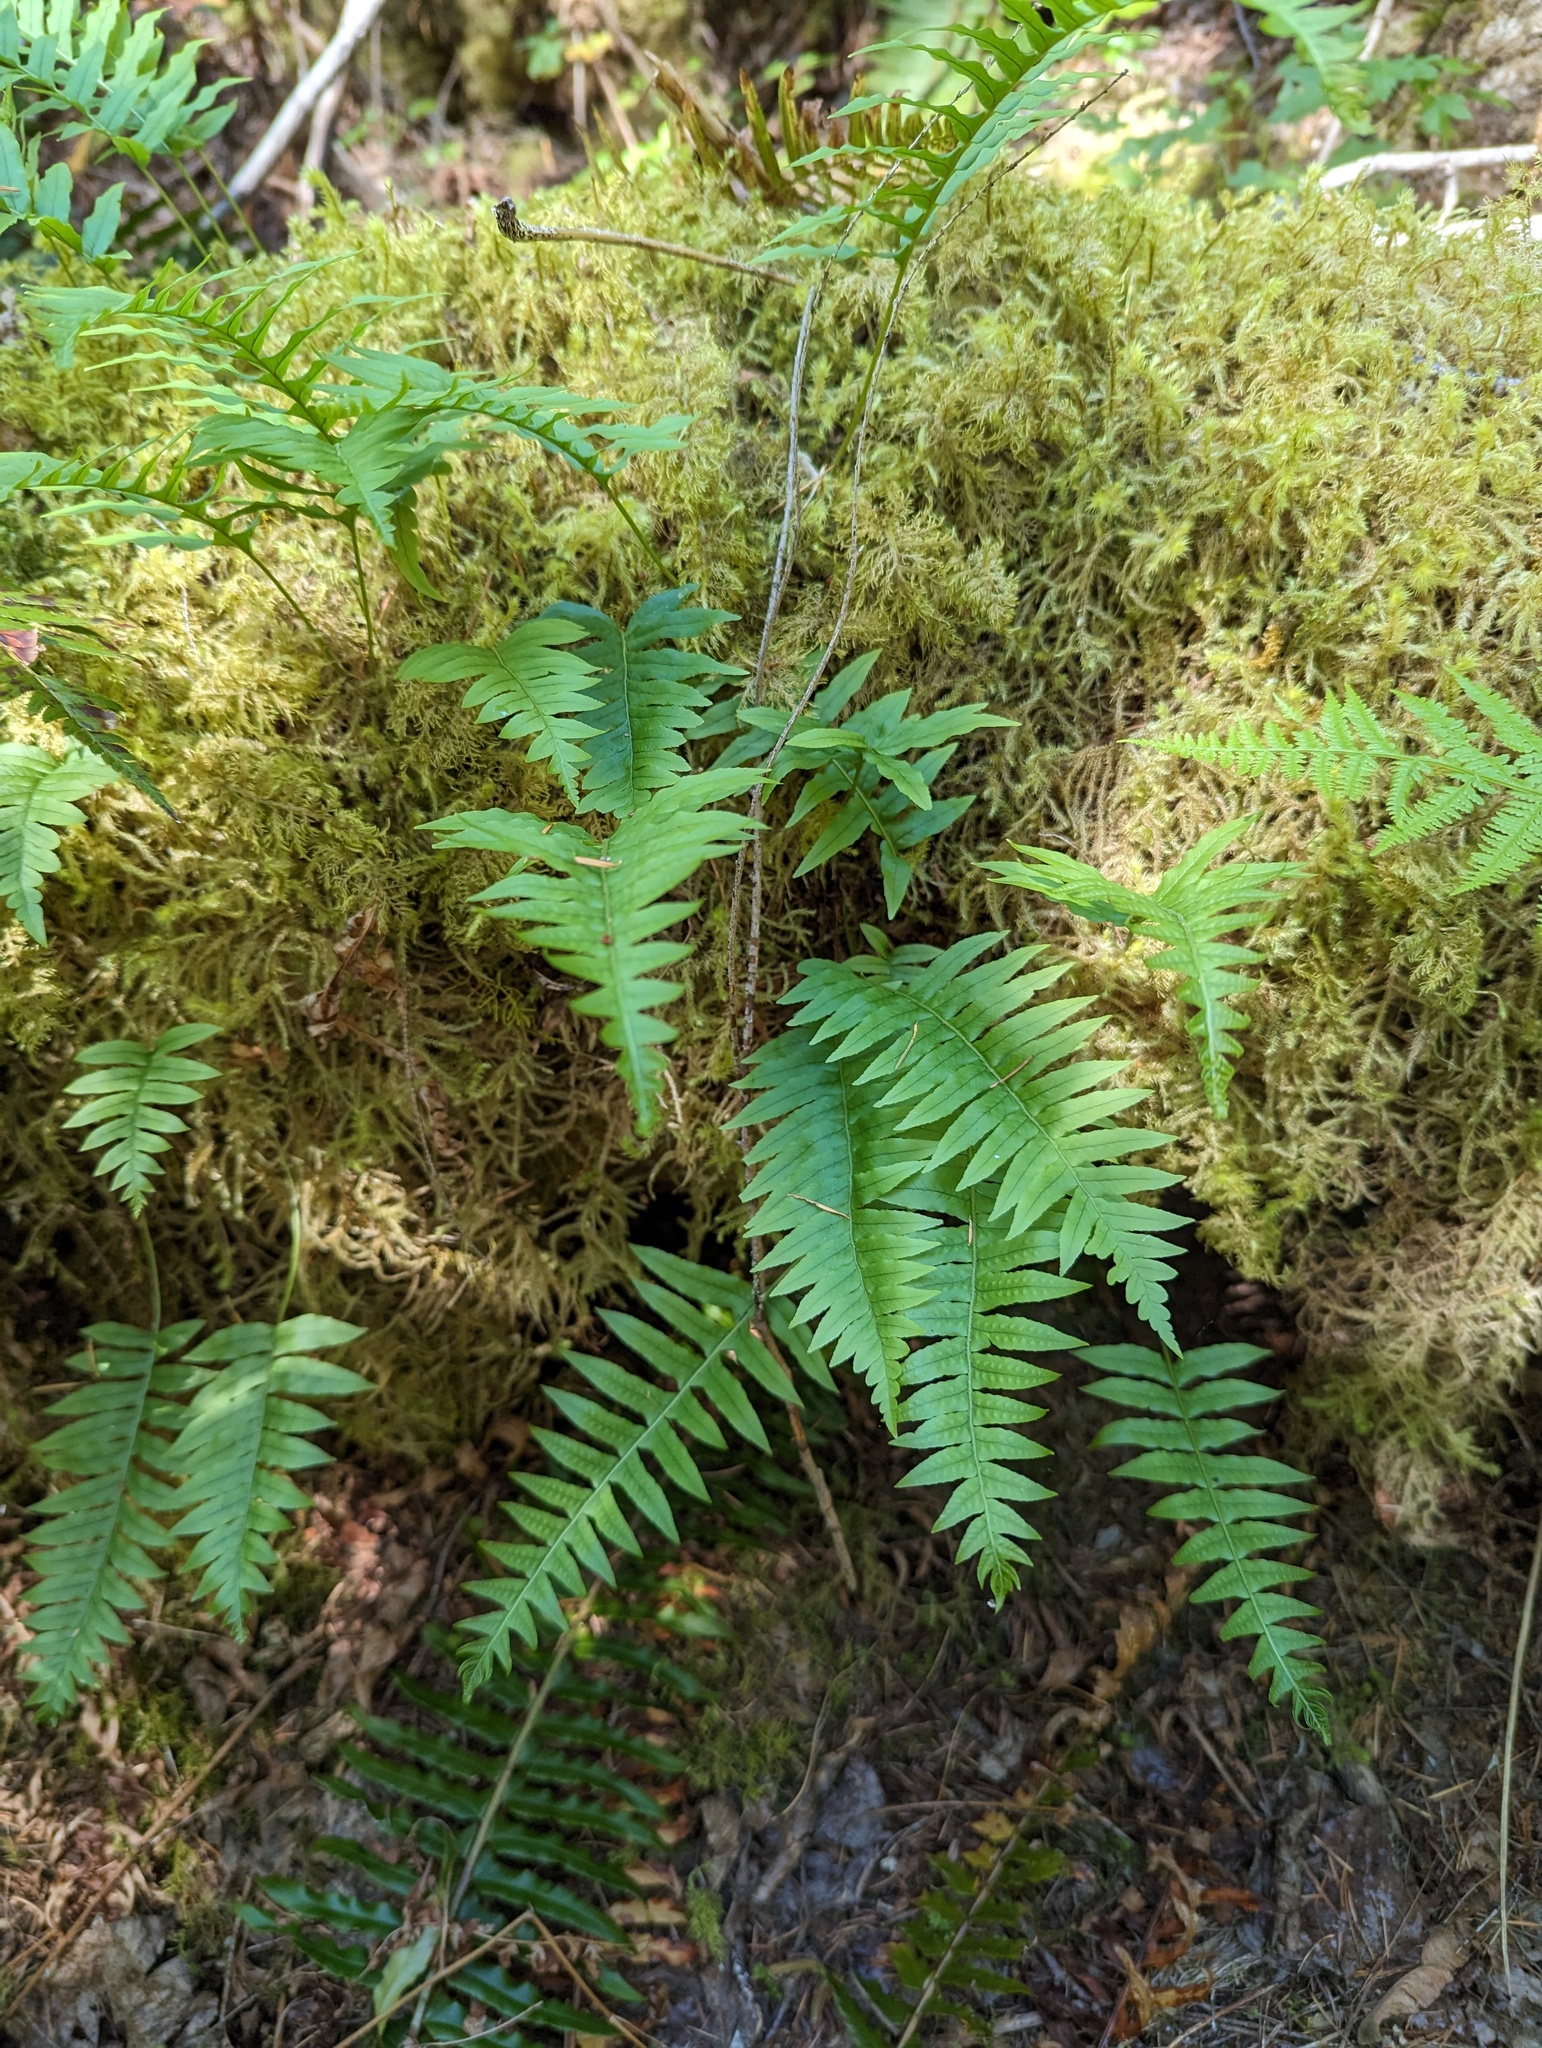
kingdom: Plantae
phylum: Tracheophyta
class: Polypodiopsida
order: Polypodiales
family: Polypodiaceae
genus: Polypodium
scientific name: Polypodium glycyrrhiza
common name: Licorice fern
